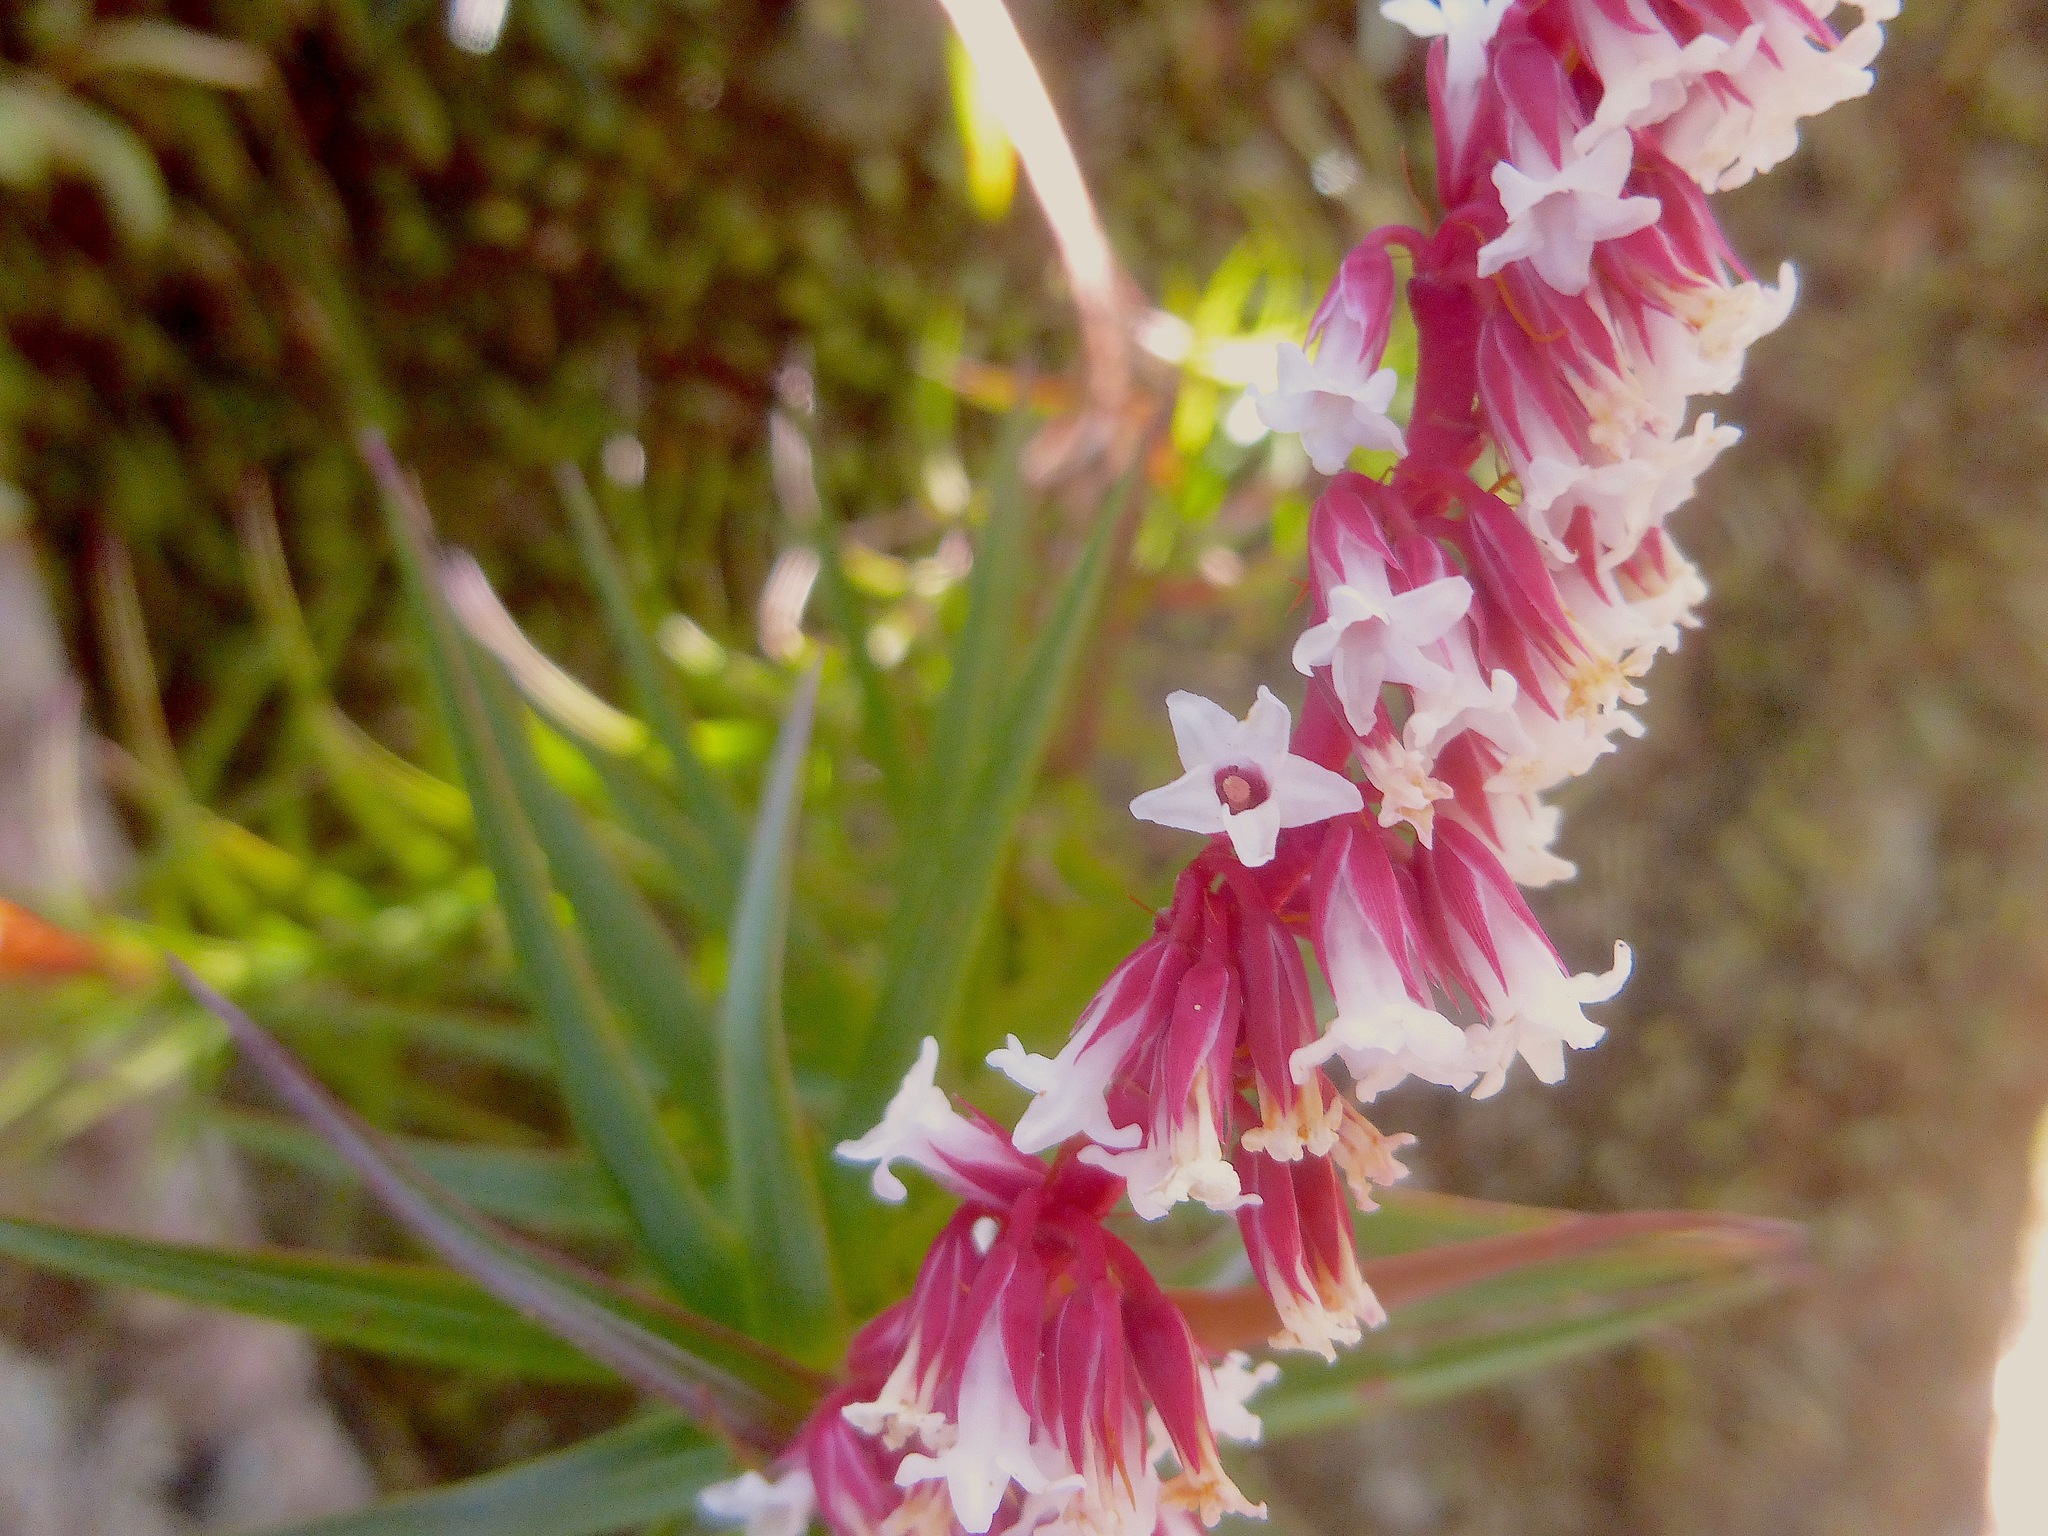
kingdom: Plantae
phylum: Tracheophyta
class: Magnoliopsida
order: Ericales
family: Ericaceae
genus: Dracophyllum
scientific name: Dracophyllum secundum
